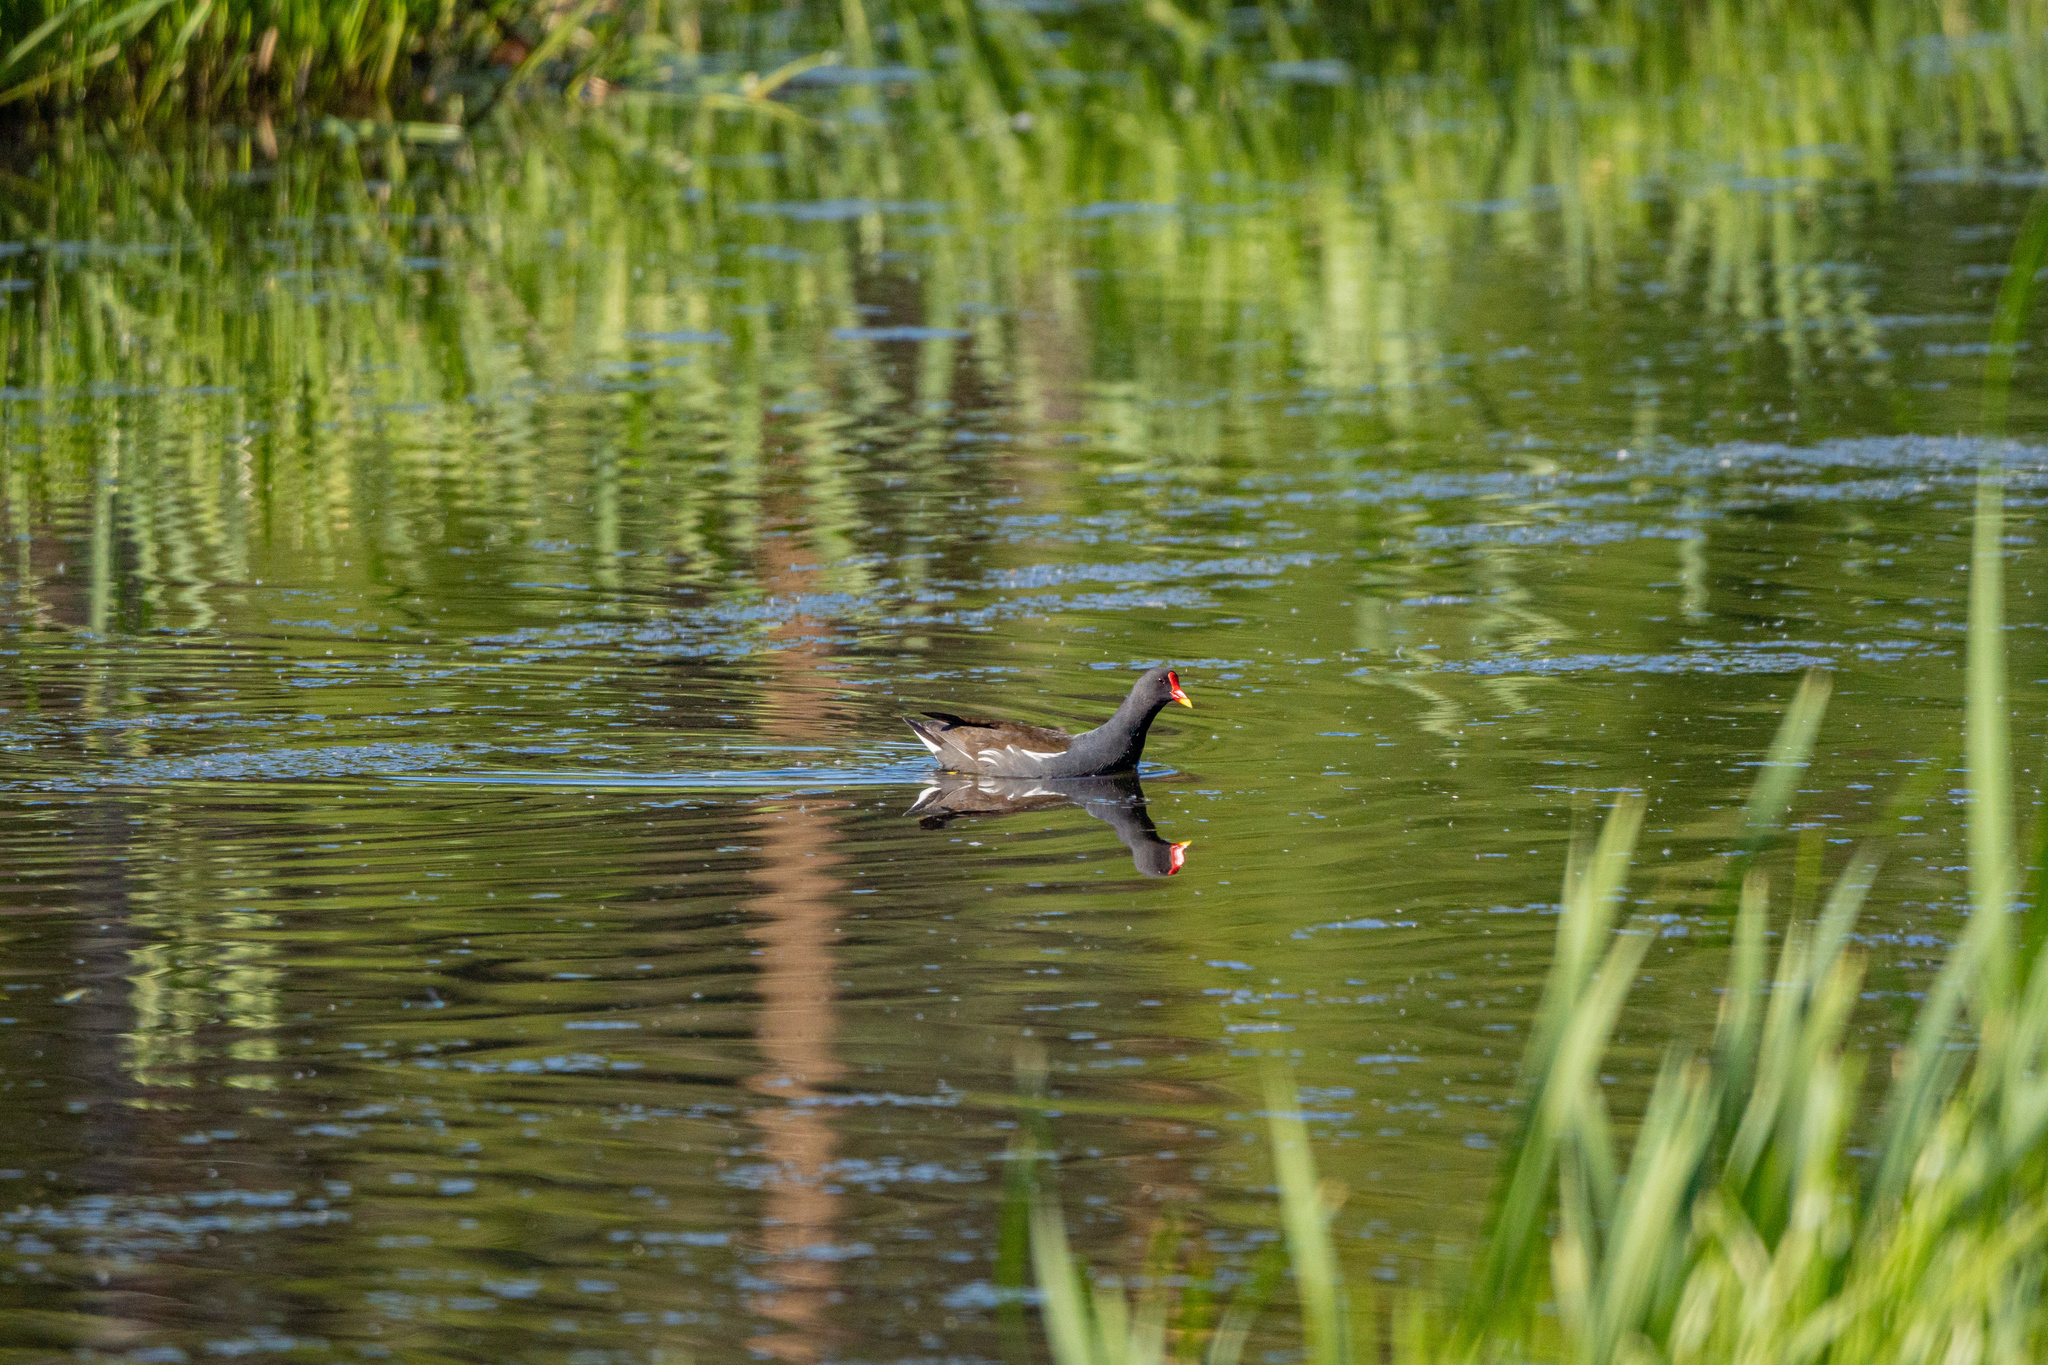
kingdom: Animalia
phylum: Chordata
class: Aves
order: Gruiformes
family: Rallidae
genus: Gallinula
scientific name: Gallinula chloropus
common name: Common moorhen
